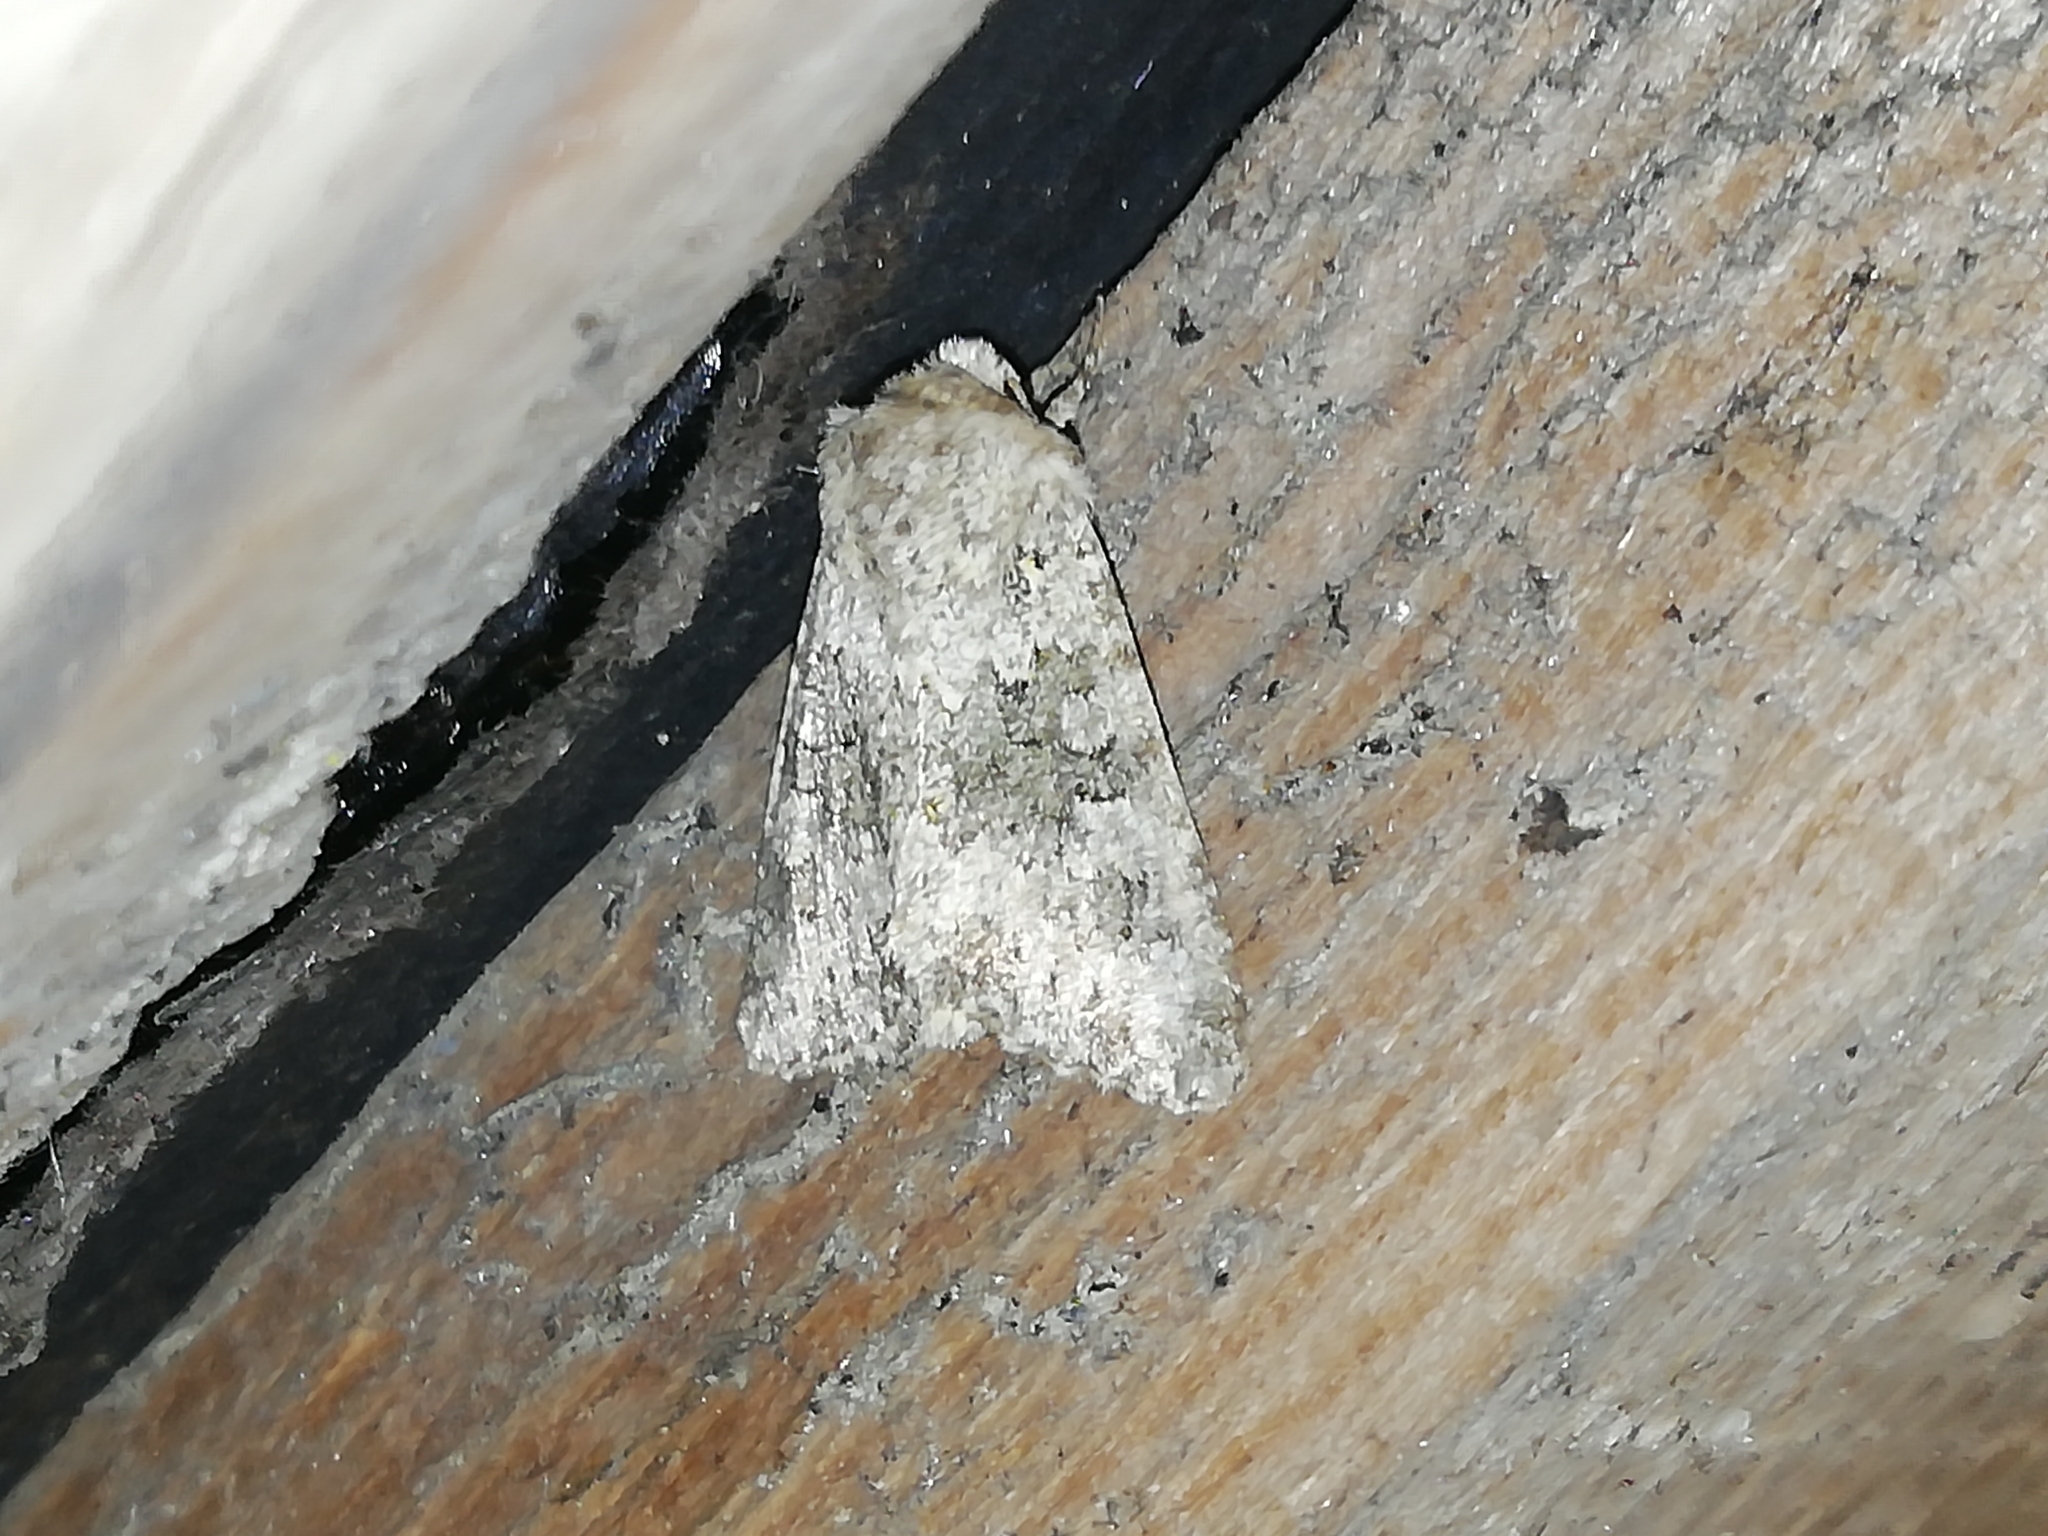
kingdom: Animalia
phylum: Arthropoda
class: Insecta
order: Lepidoptera
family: Noctuidae
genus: Hecatera
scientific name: Hecatera dysodea
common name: Small ranunculus
